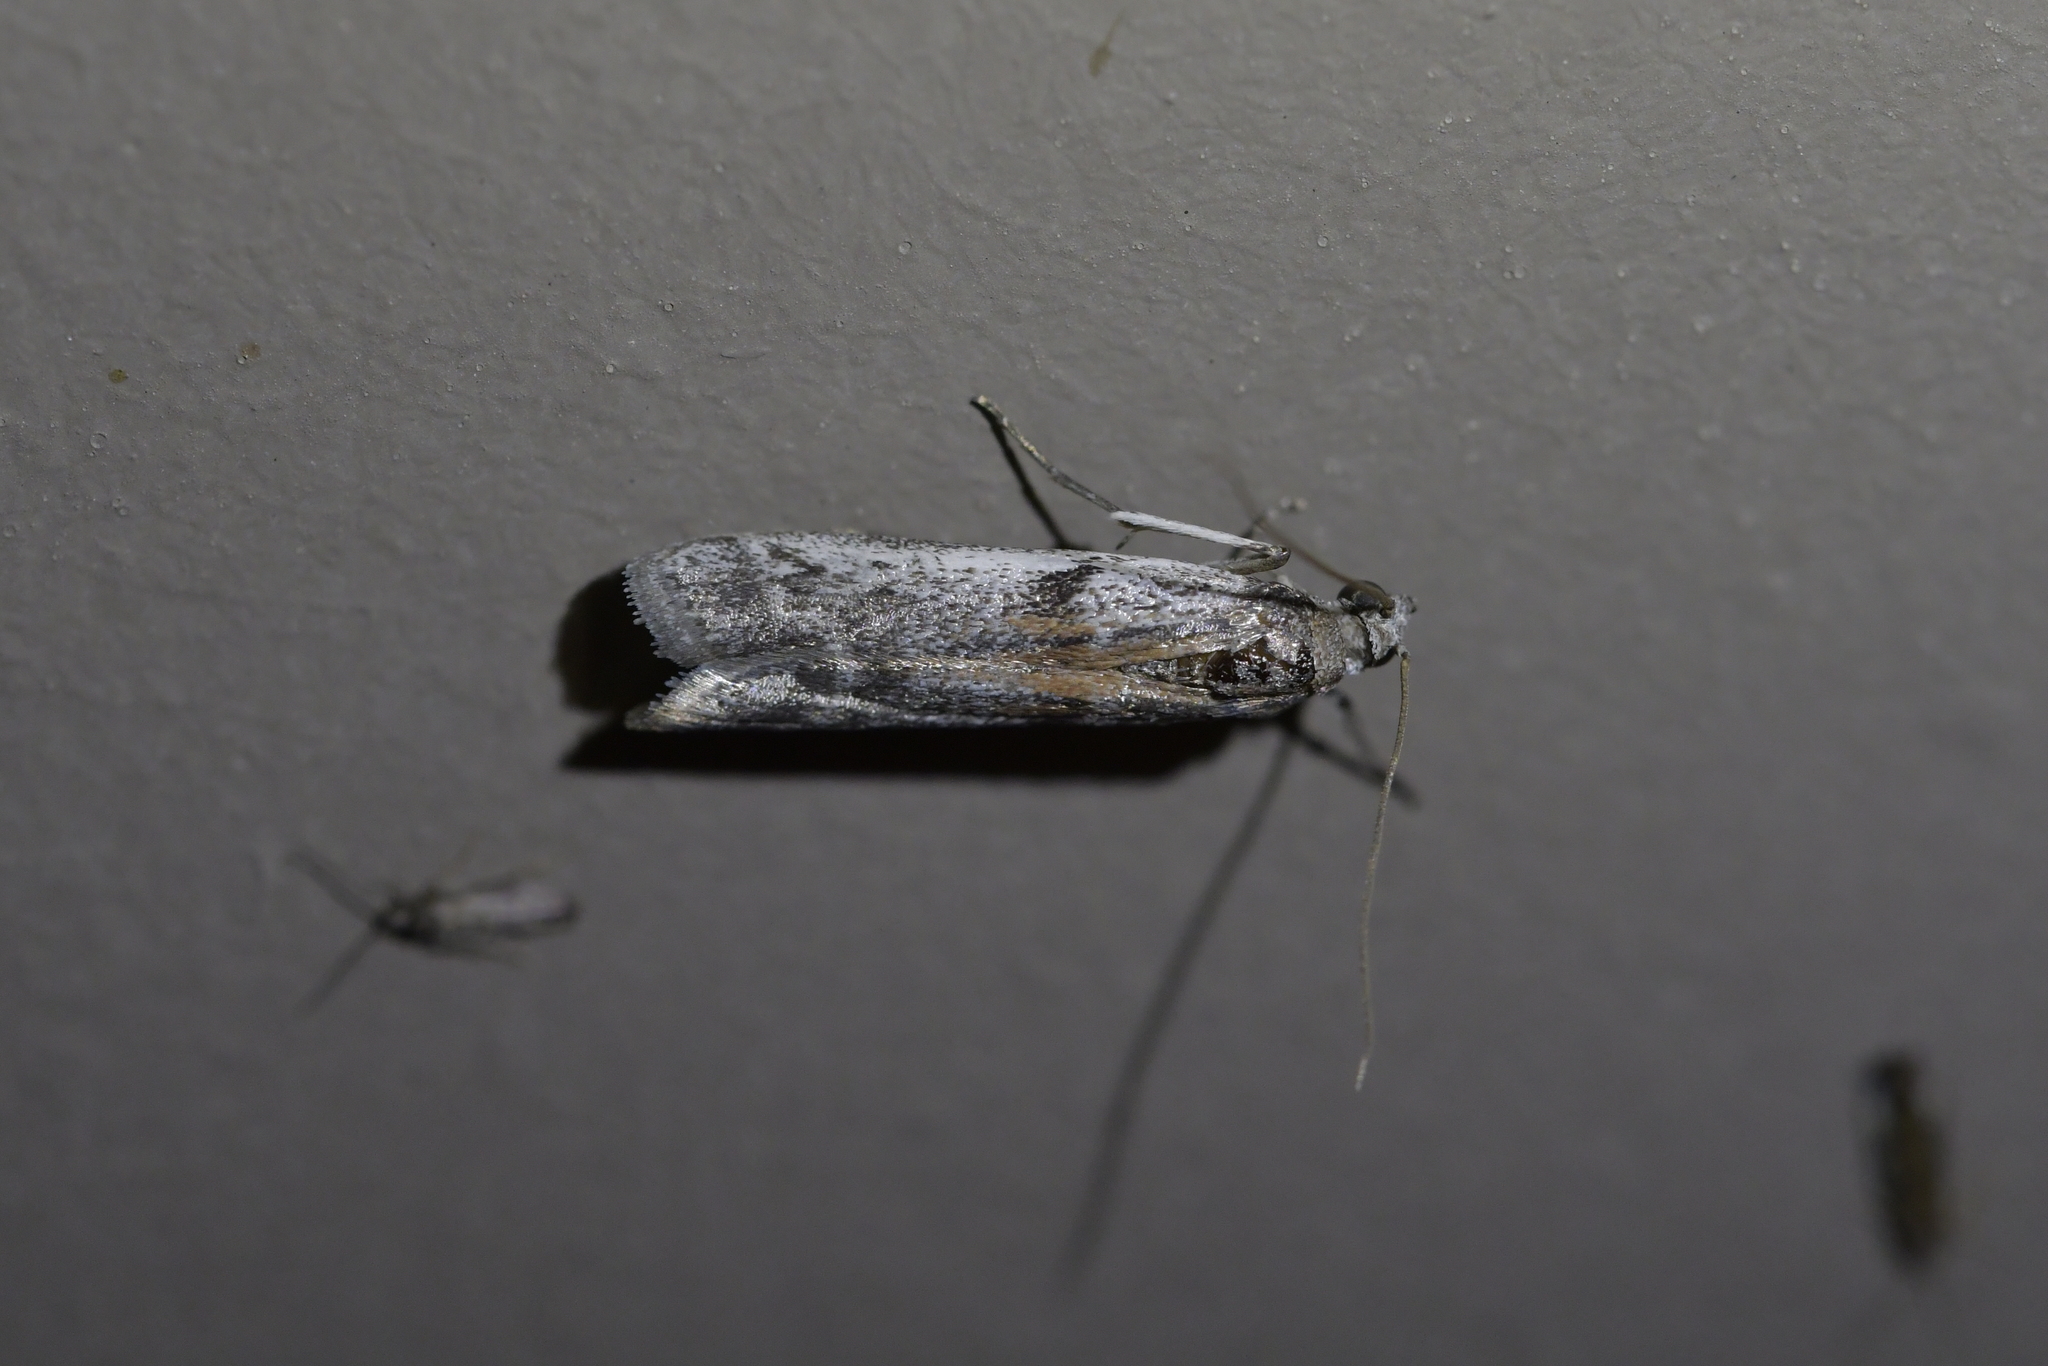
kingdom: Animalia
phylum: Arthropoda
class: Insecta
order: Lepidoptera
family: Pyralidae
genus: Patagoniodes
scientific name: Patagoniodes farinaria
